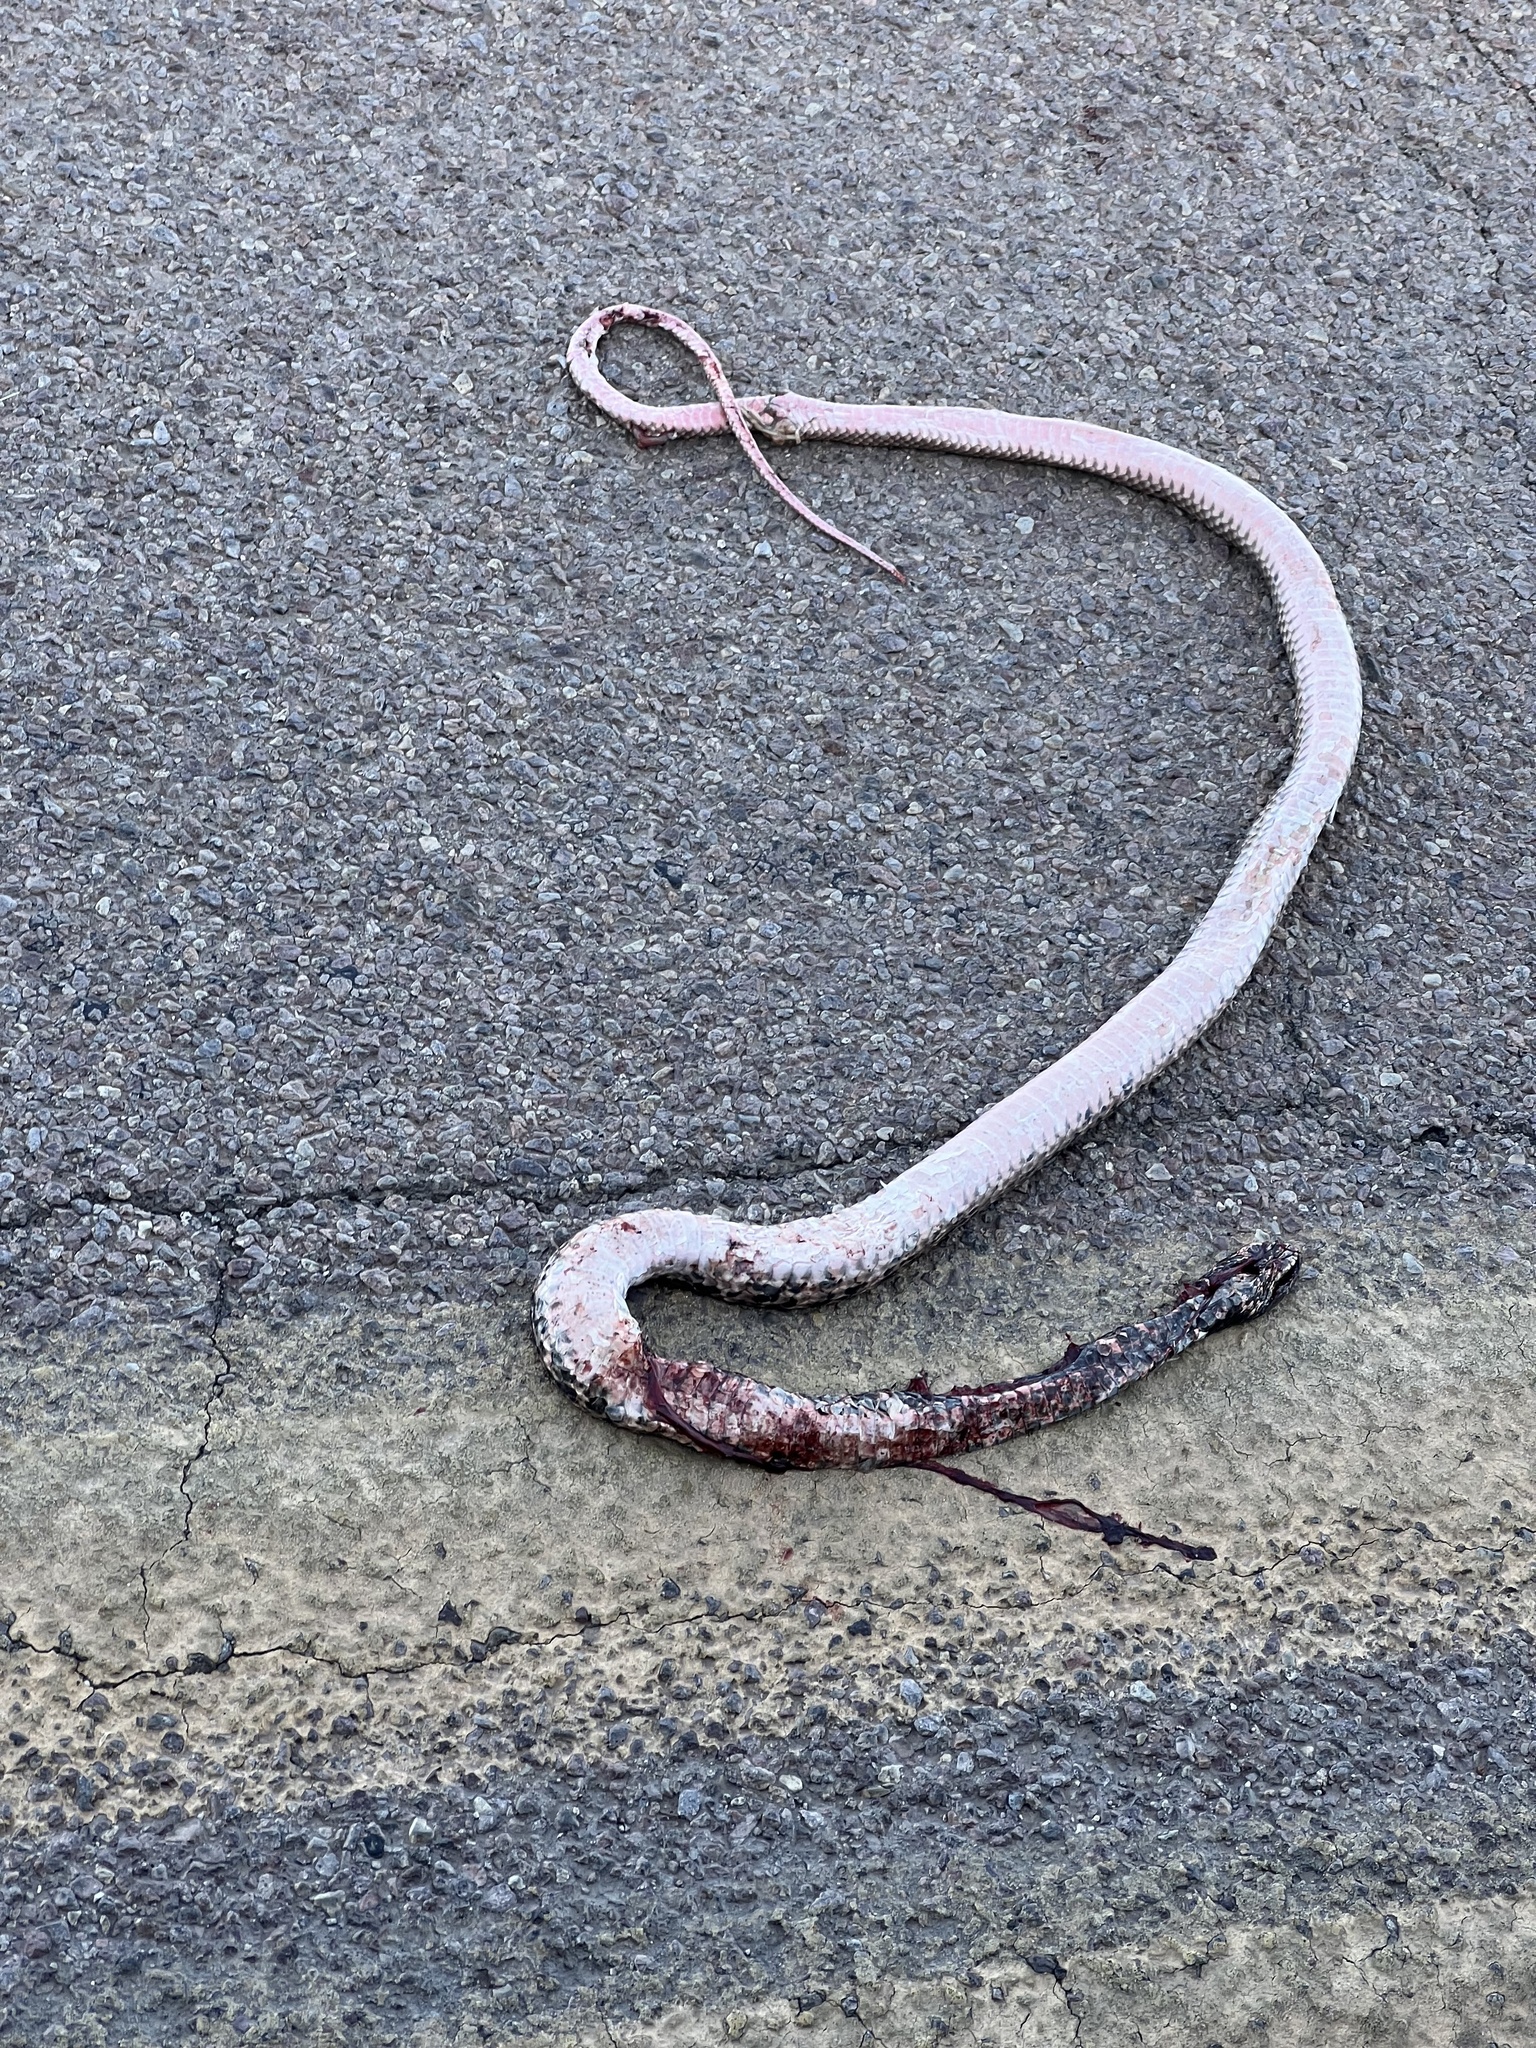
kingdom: Animalia
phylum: Chordata
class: Squamata
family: Colubridae
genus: Masticophis
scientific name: Masticophis flagellum
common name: Coachwhip
